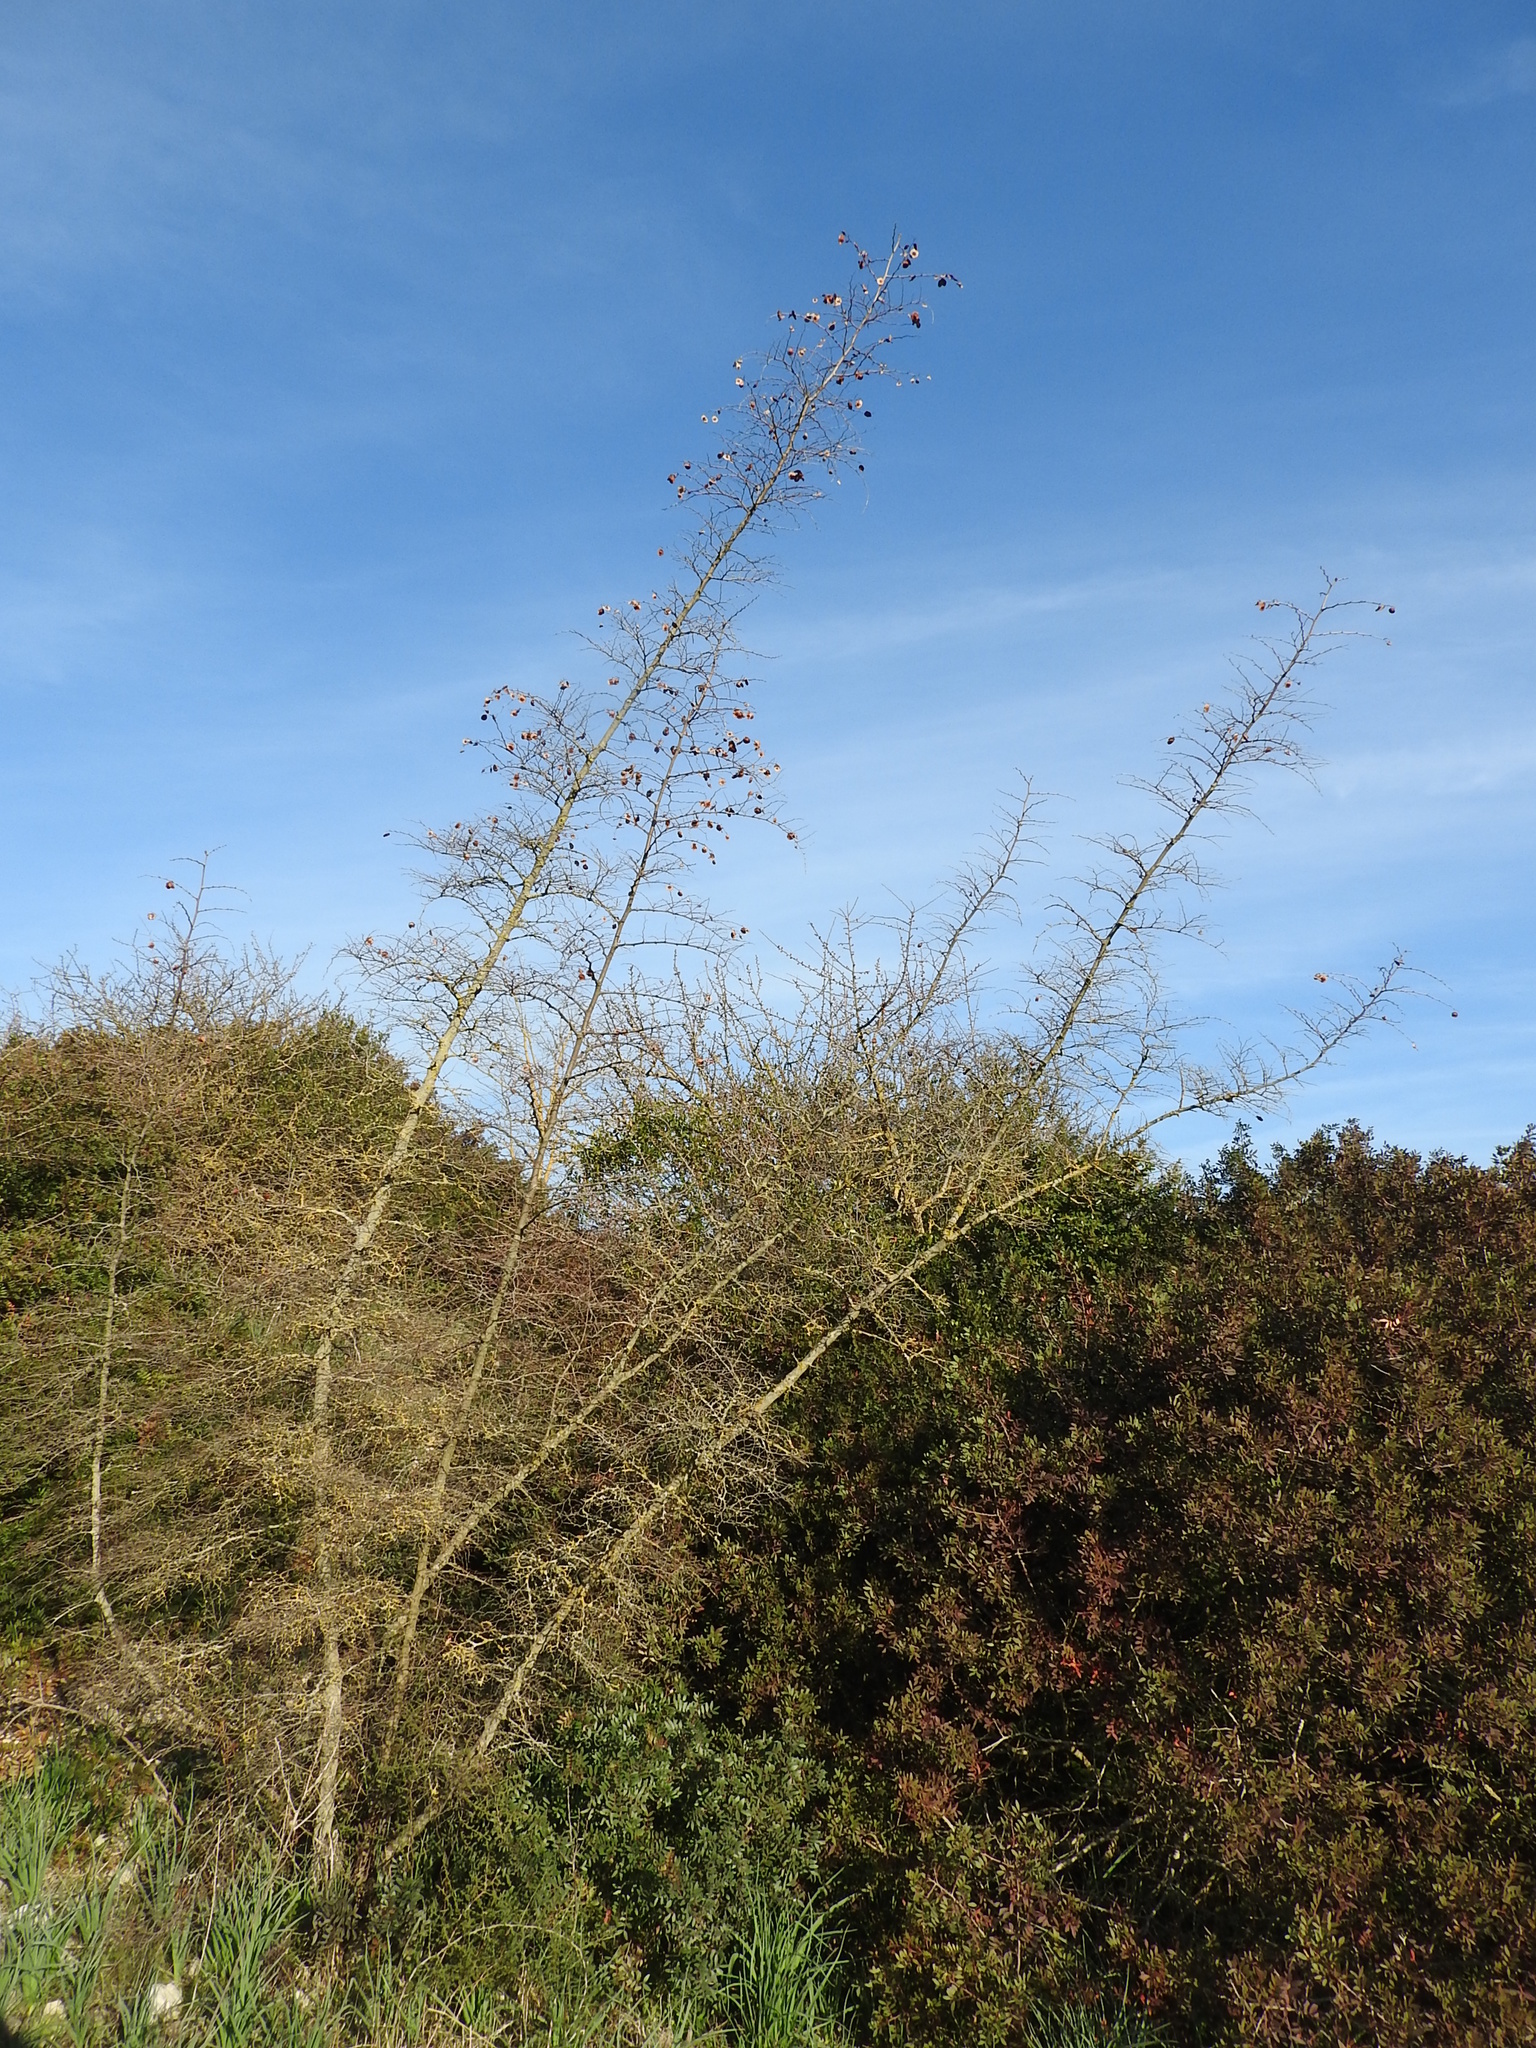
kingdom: Plantae
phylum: Tracheophyta
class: Magnoliopsida
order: Rosales
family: Rhamnaceae
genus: Paliurus
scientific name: Paliurus spina-christi
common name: Jeruselem thorn
